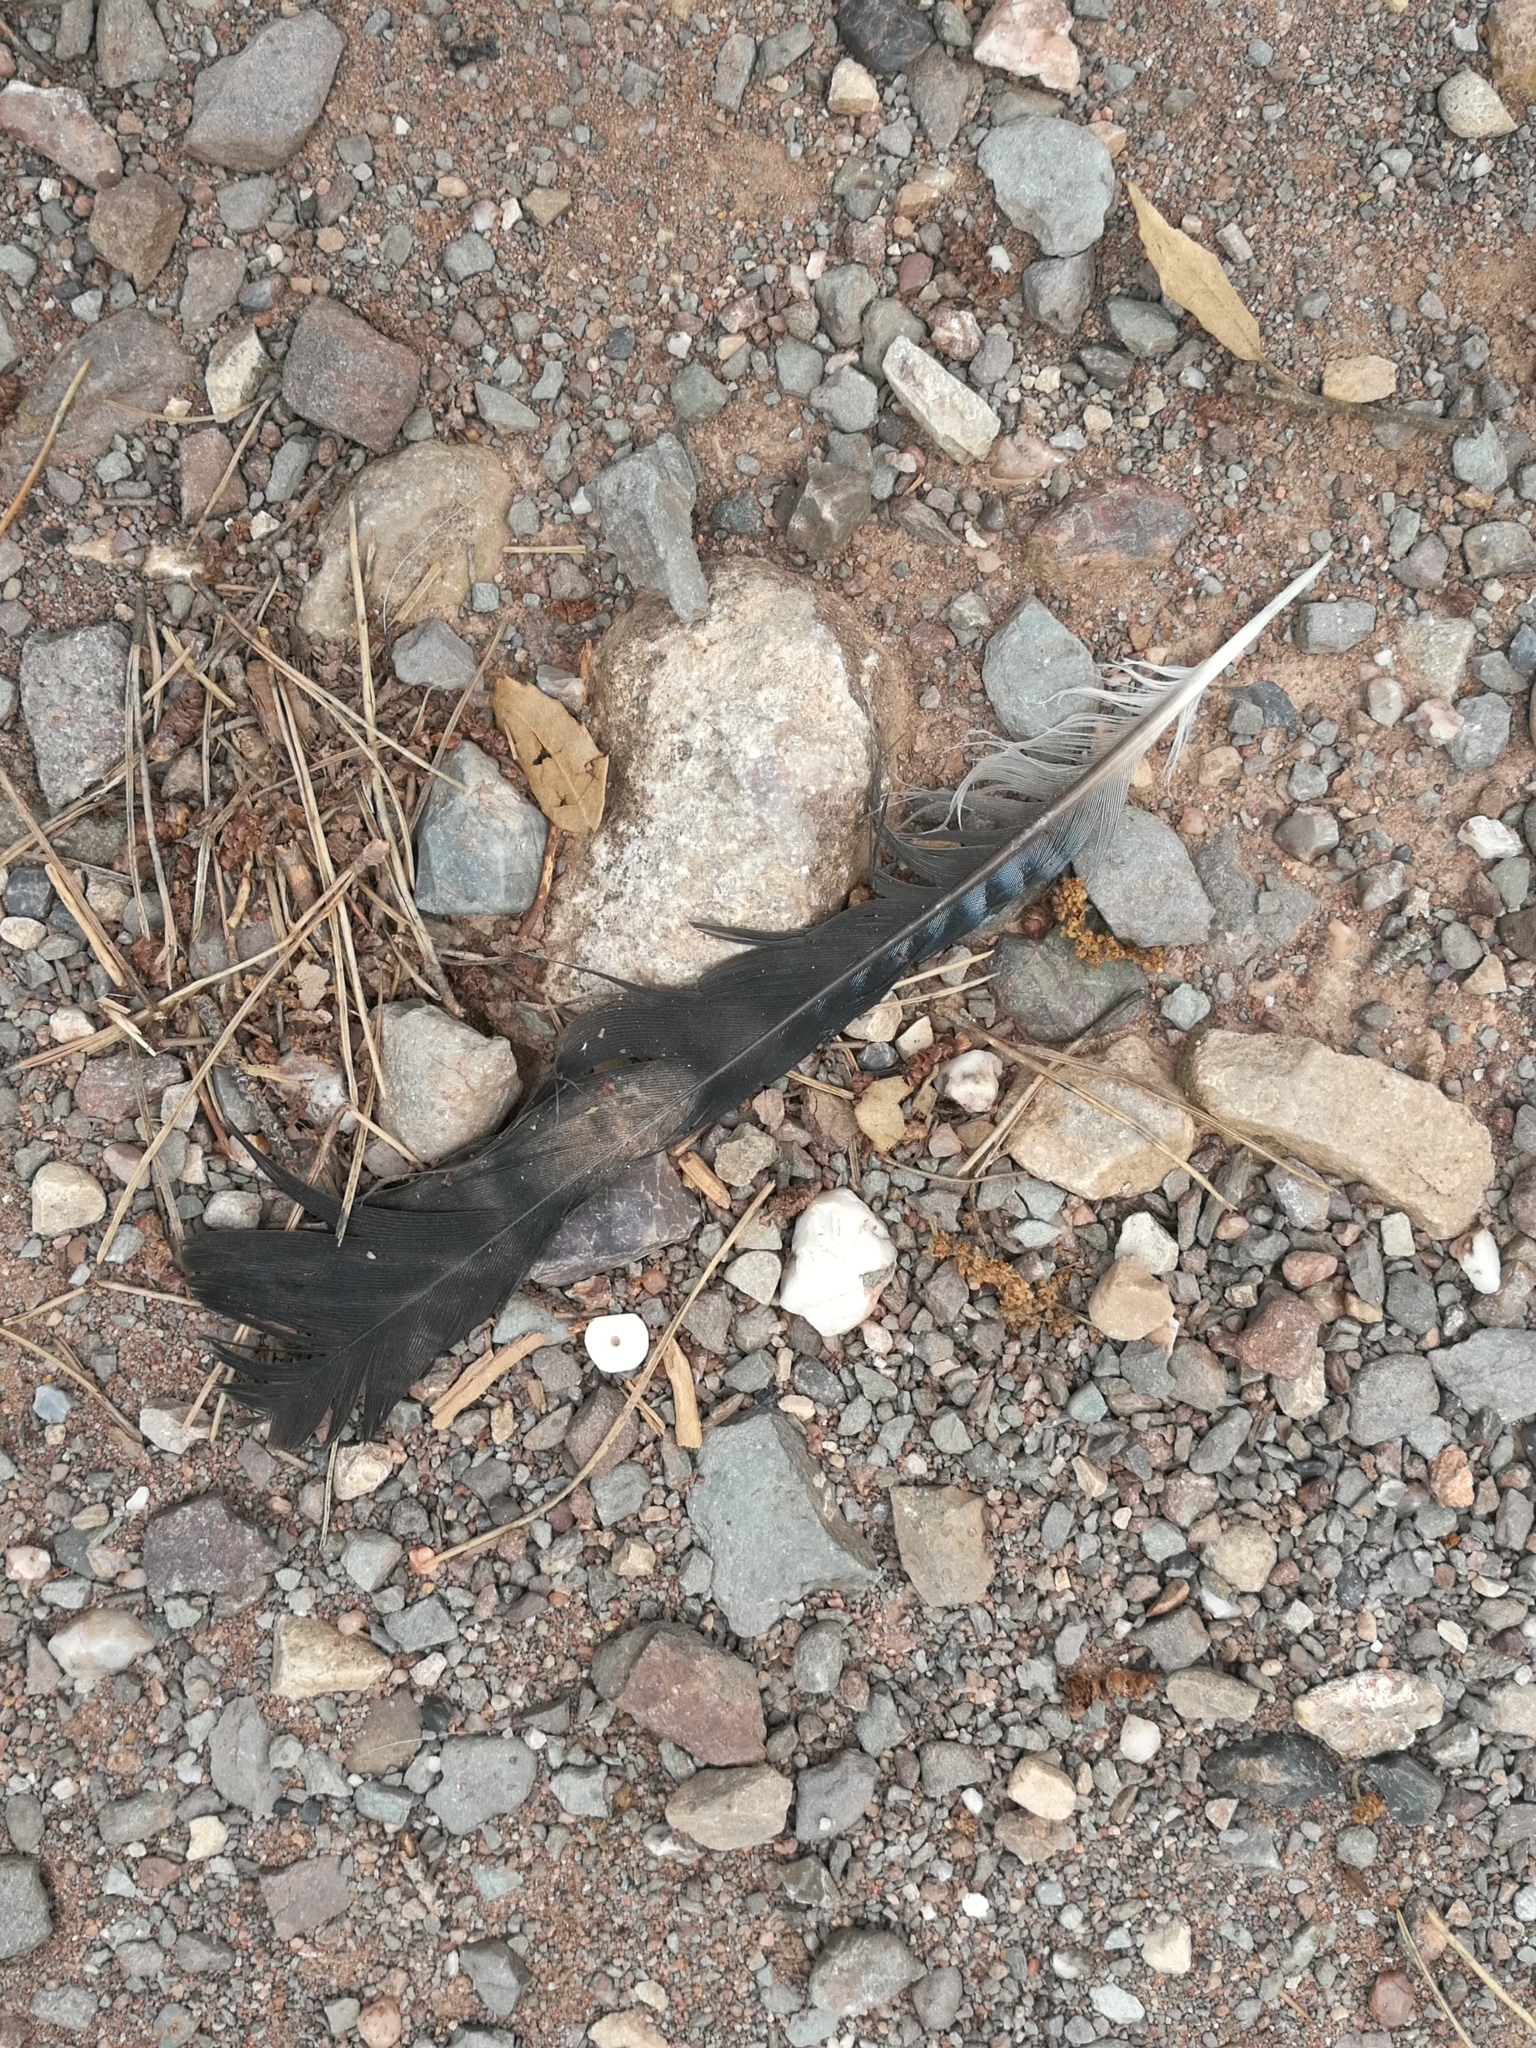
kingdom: Animalia
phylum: Chordata
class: Aves
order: Passeriformes
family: Corvidae
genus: Garrulus
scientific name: Garrulus glandarius
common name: Eurasian jay
